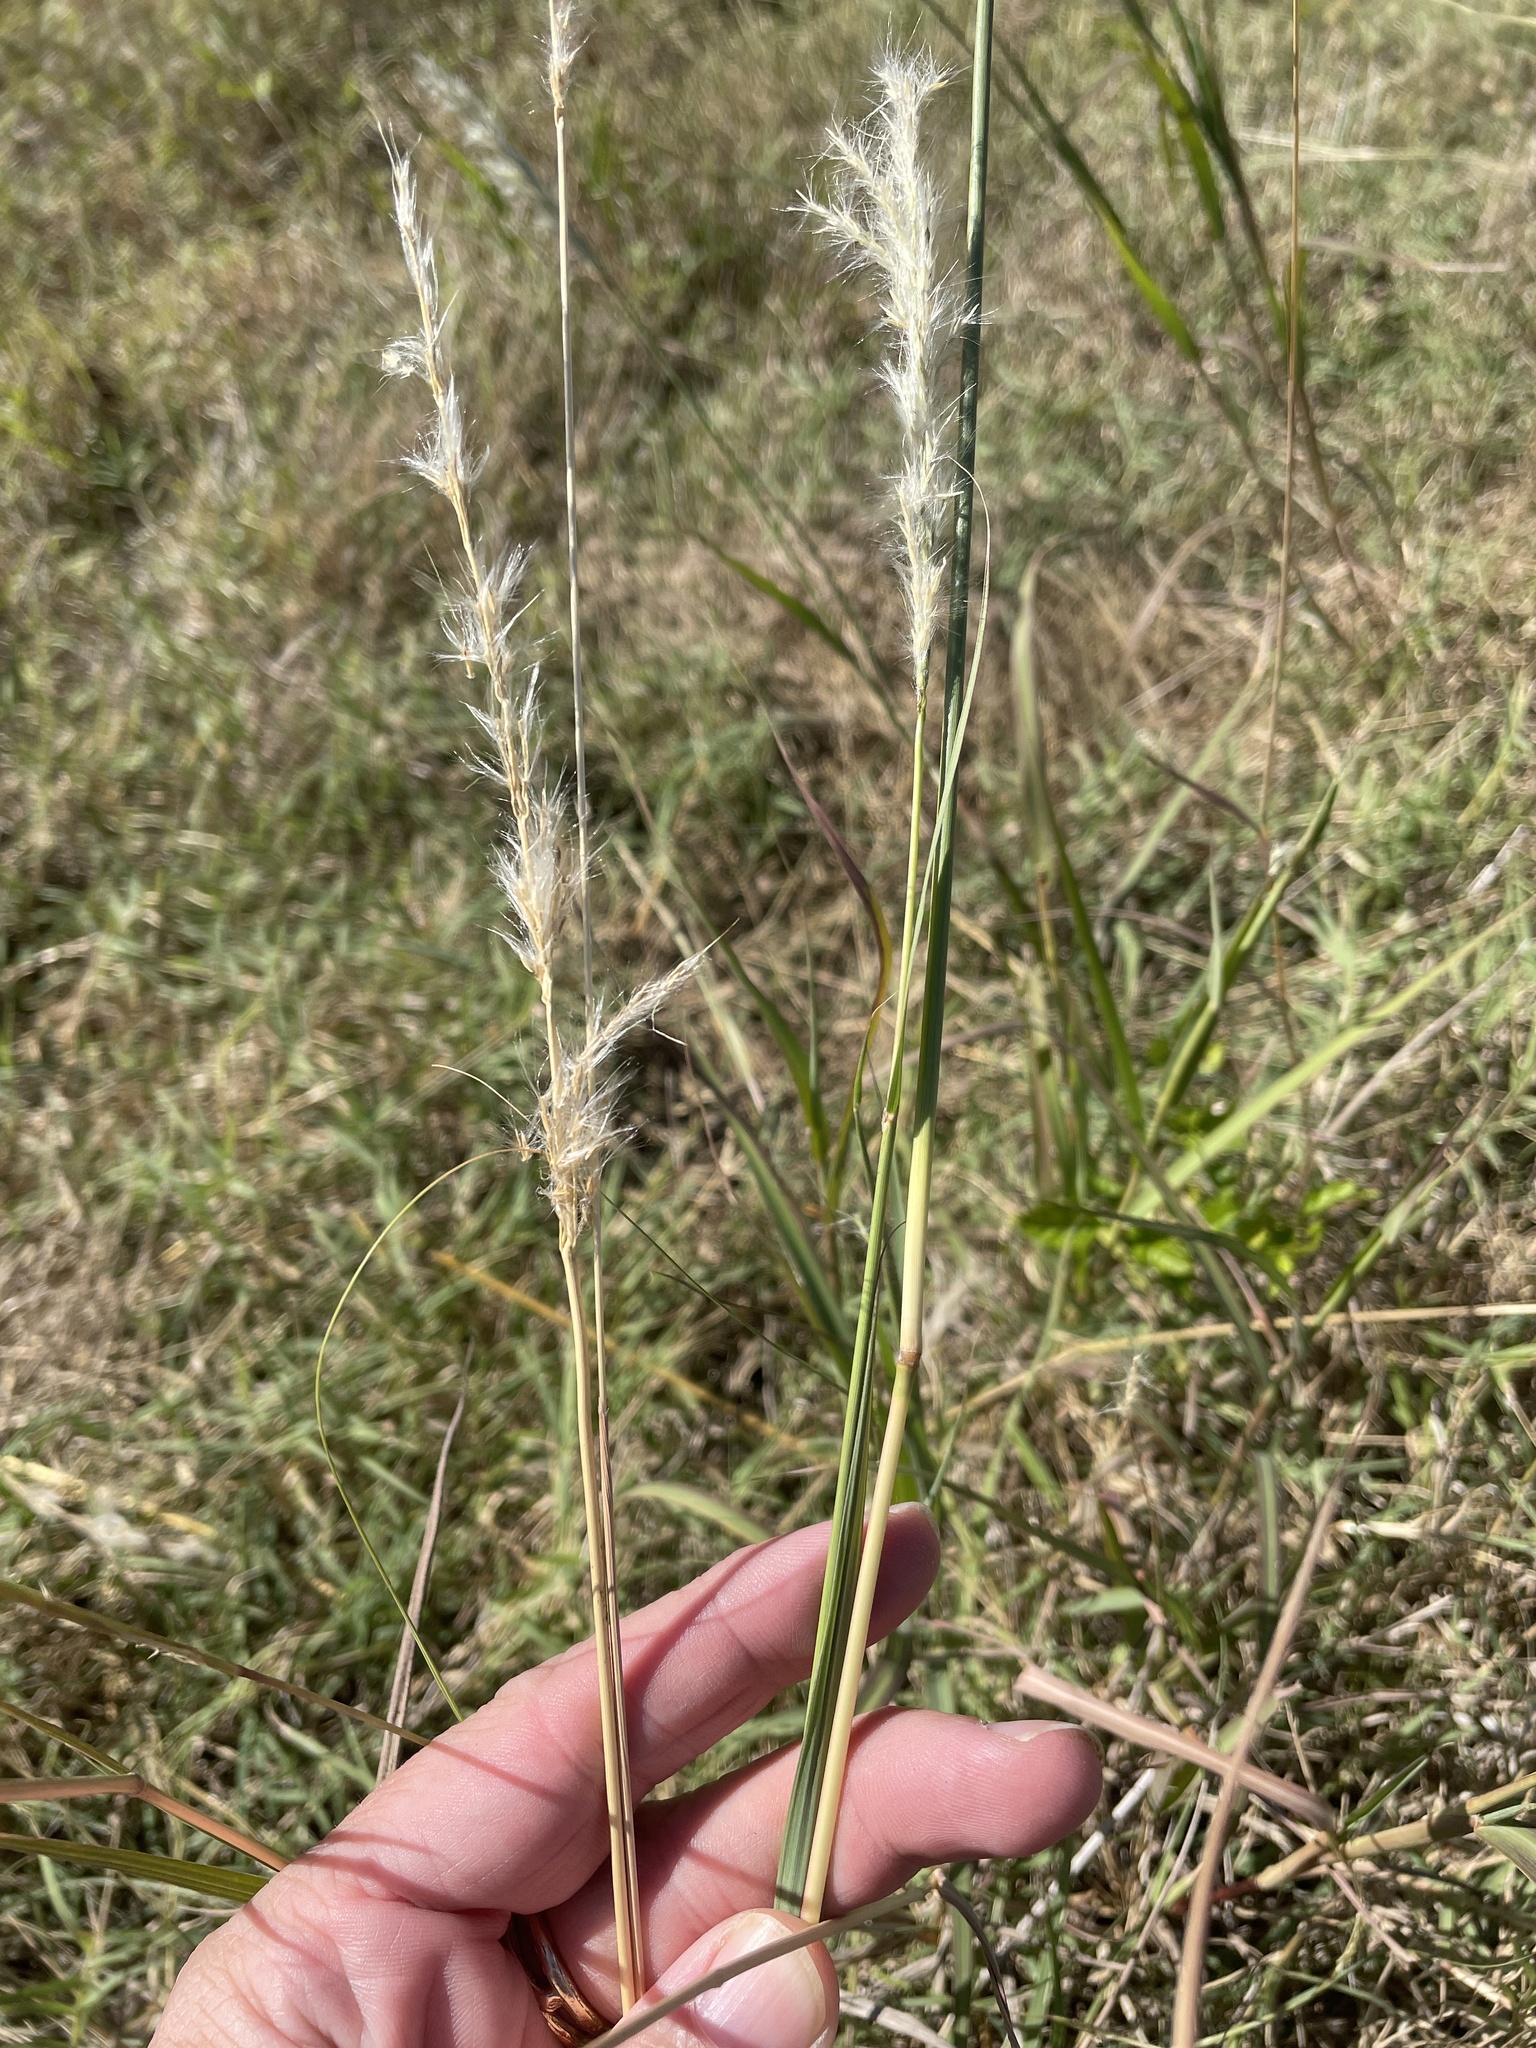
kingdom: Plantae
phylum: Tracheophyta
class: Liliopsida
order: Poales
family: Poaceae
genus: Bothriochloa
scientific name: Bothriochloa longipaniculata
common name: Longspike silver bluestem
